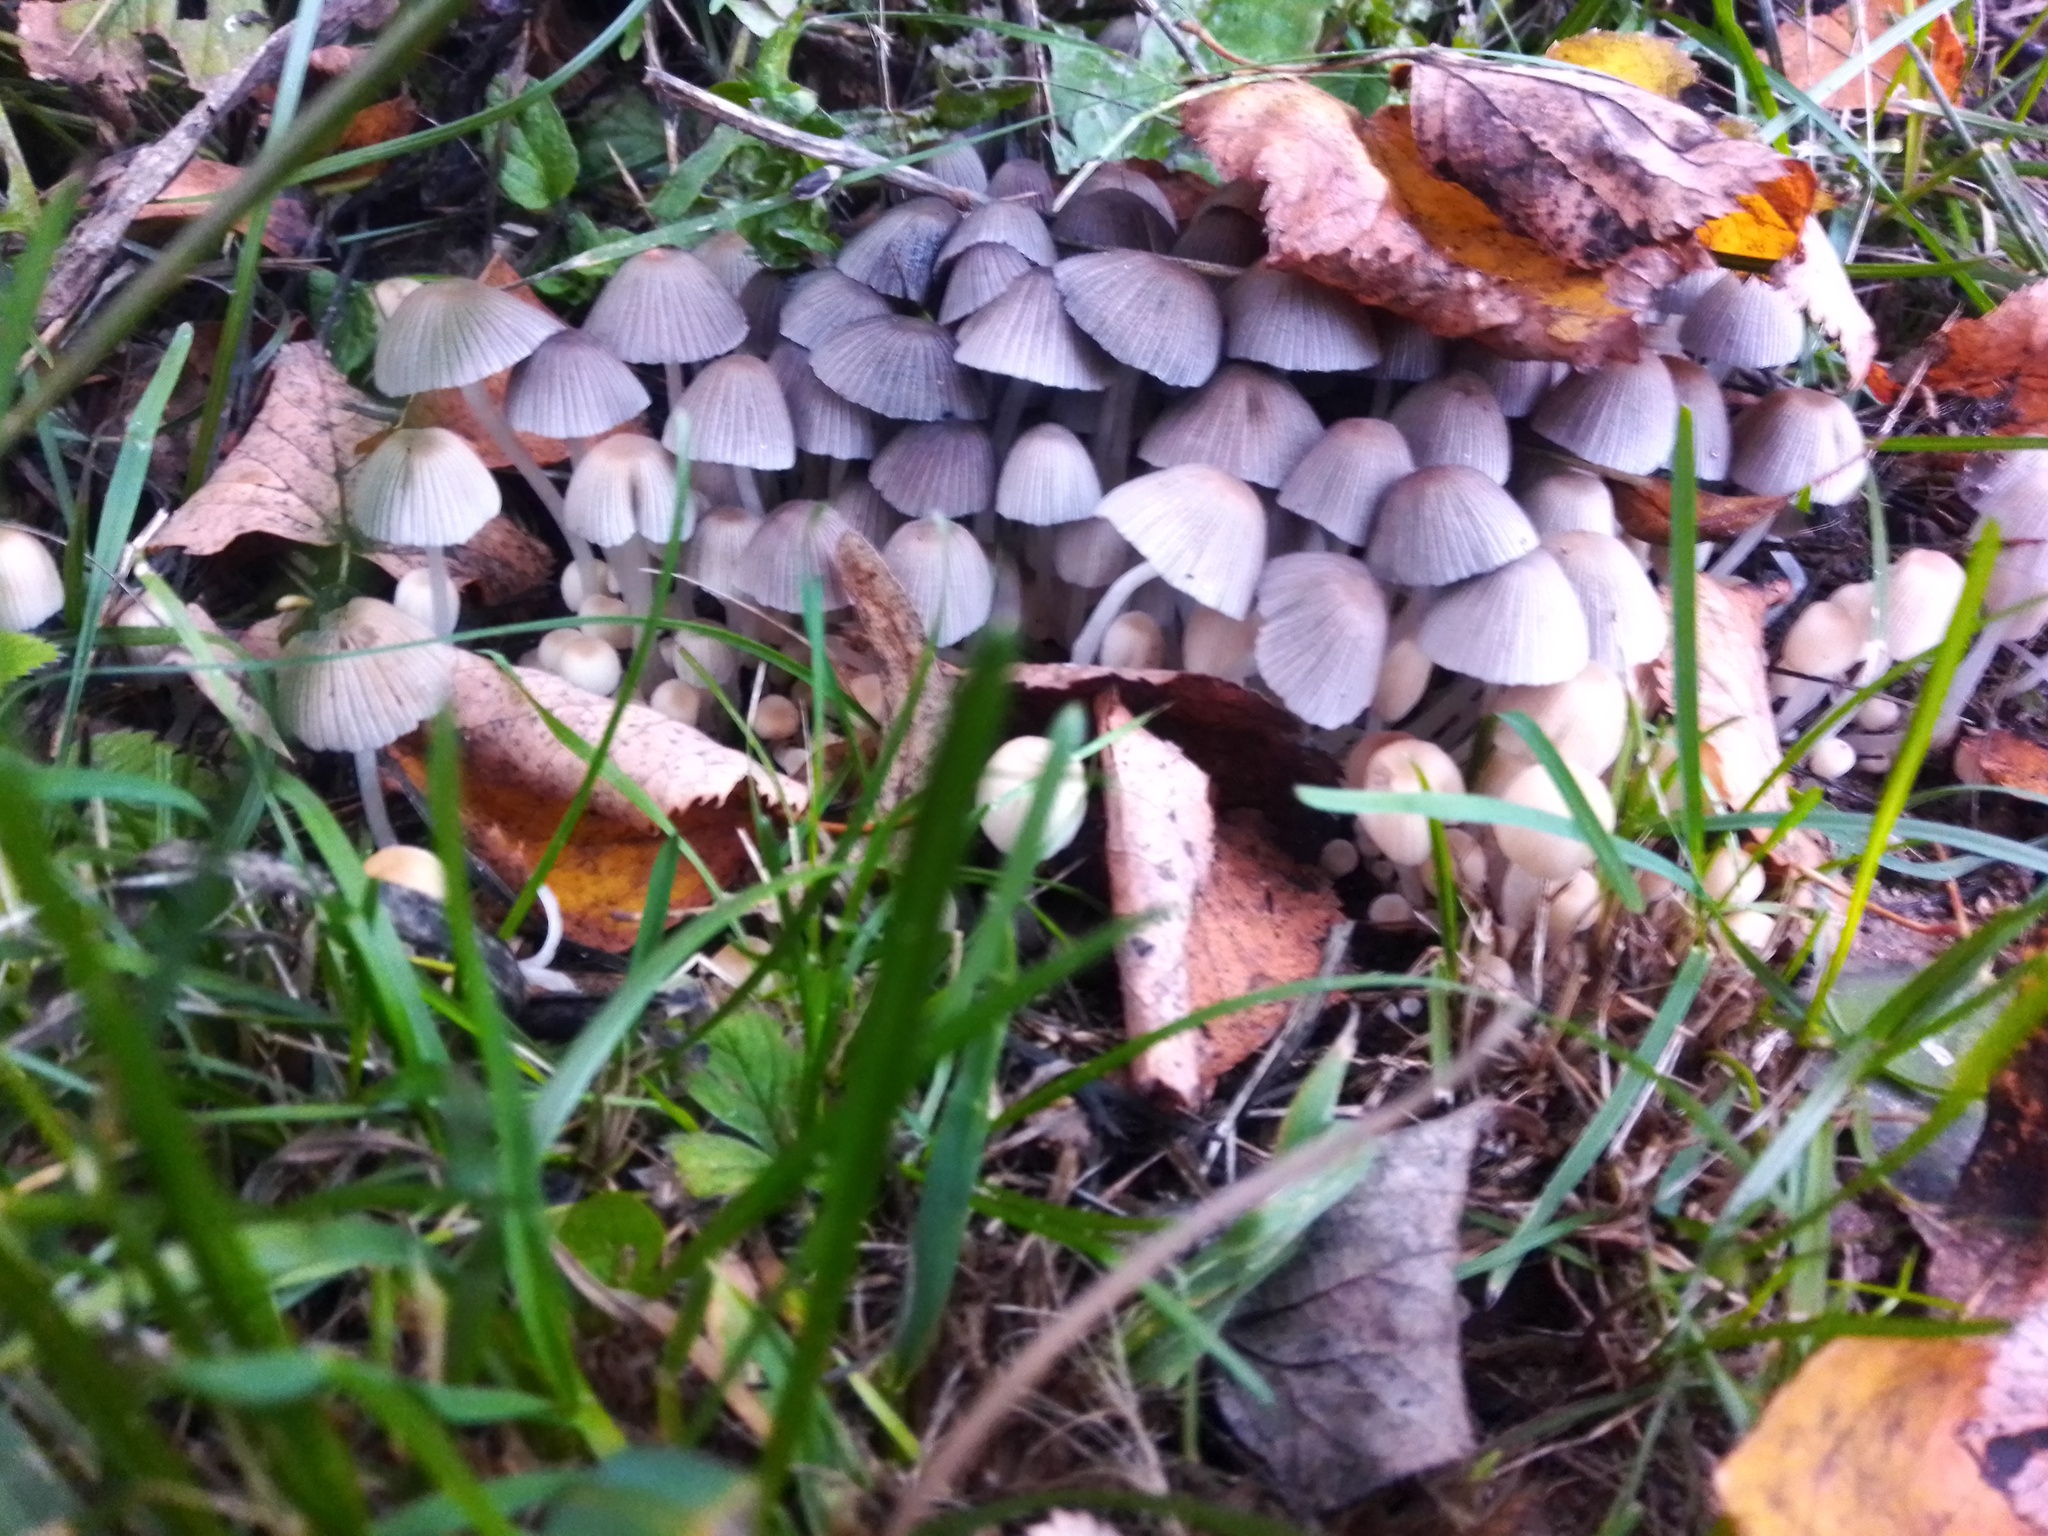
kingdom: Fungi
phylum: Basidiomycota
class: Agaricomycetes
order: Agaricales
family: Psathyrellaceae
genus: Coprinellus
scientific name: Coprinellus disseminatus
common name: Fairies' bonnets
